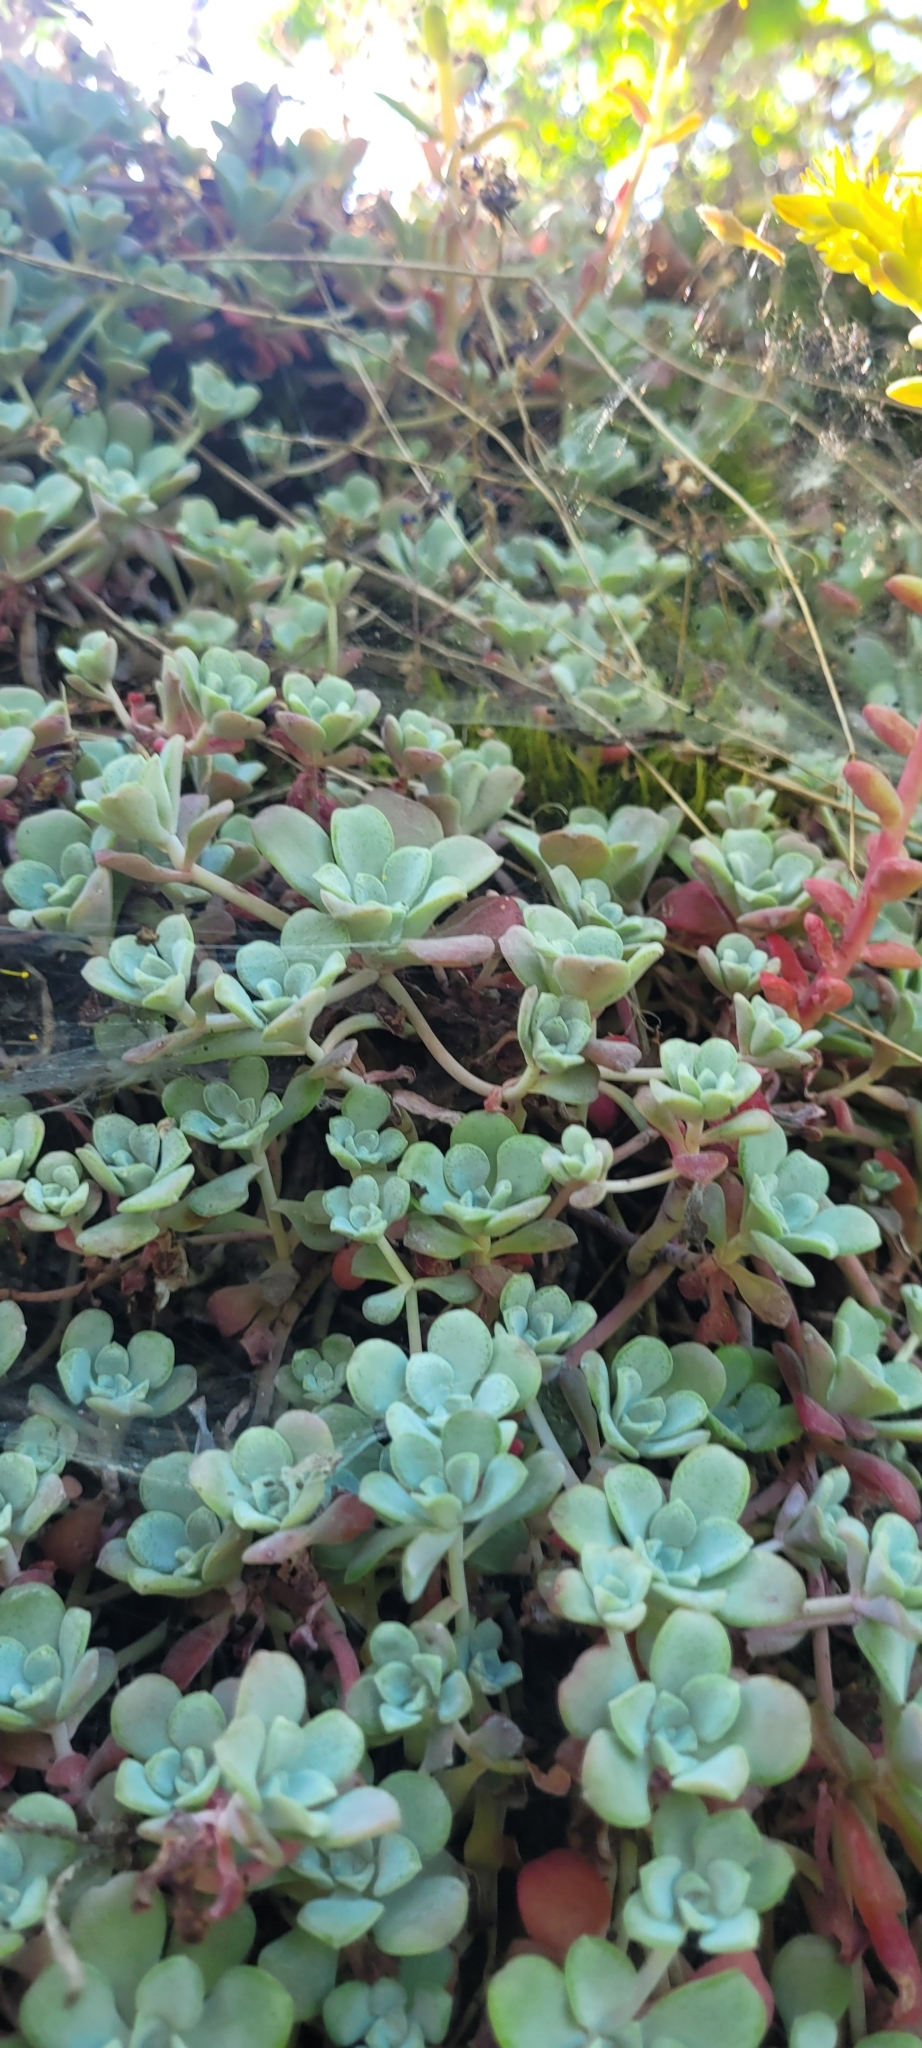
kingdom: Plantae
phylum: Tracheophyta
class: Magnoliopsida
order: Saxifragales
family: Crassulaceae
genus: Sedum
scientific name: Sedum spathulifolium
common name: Colorado stonecrop
